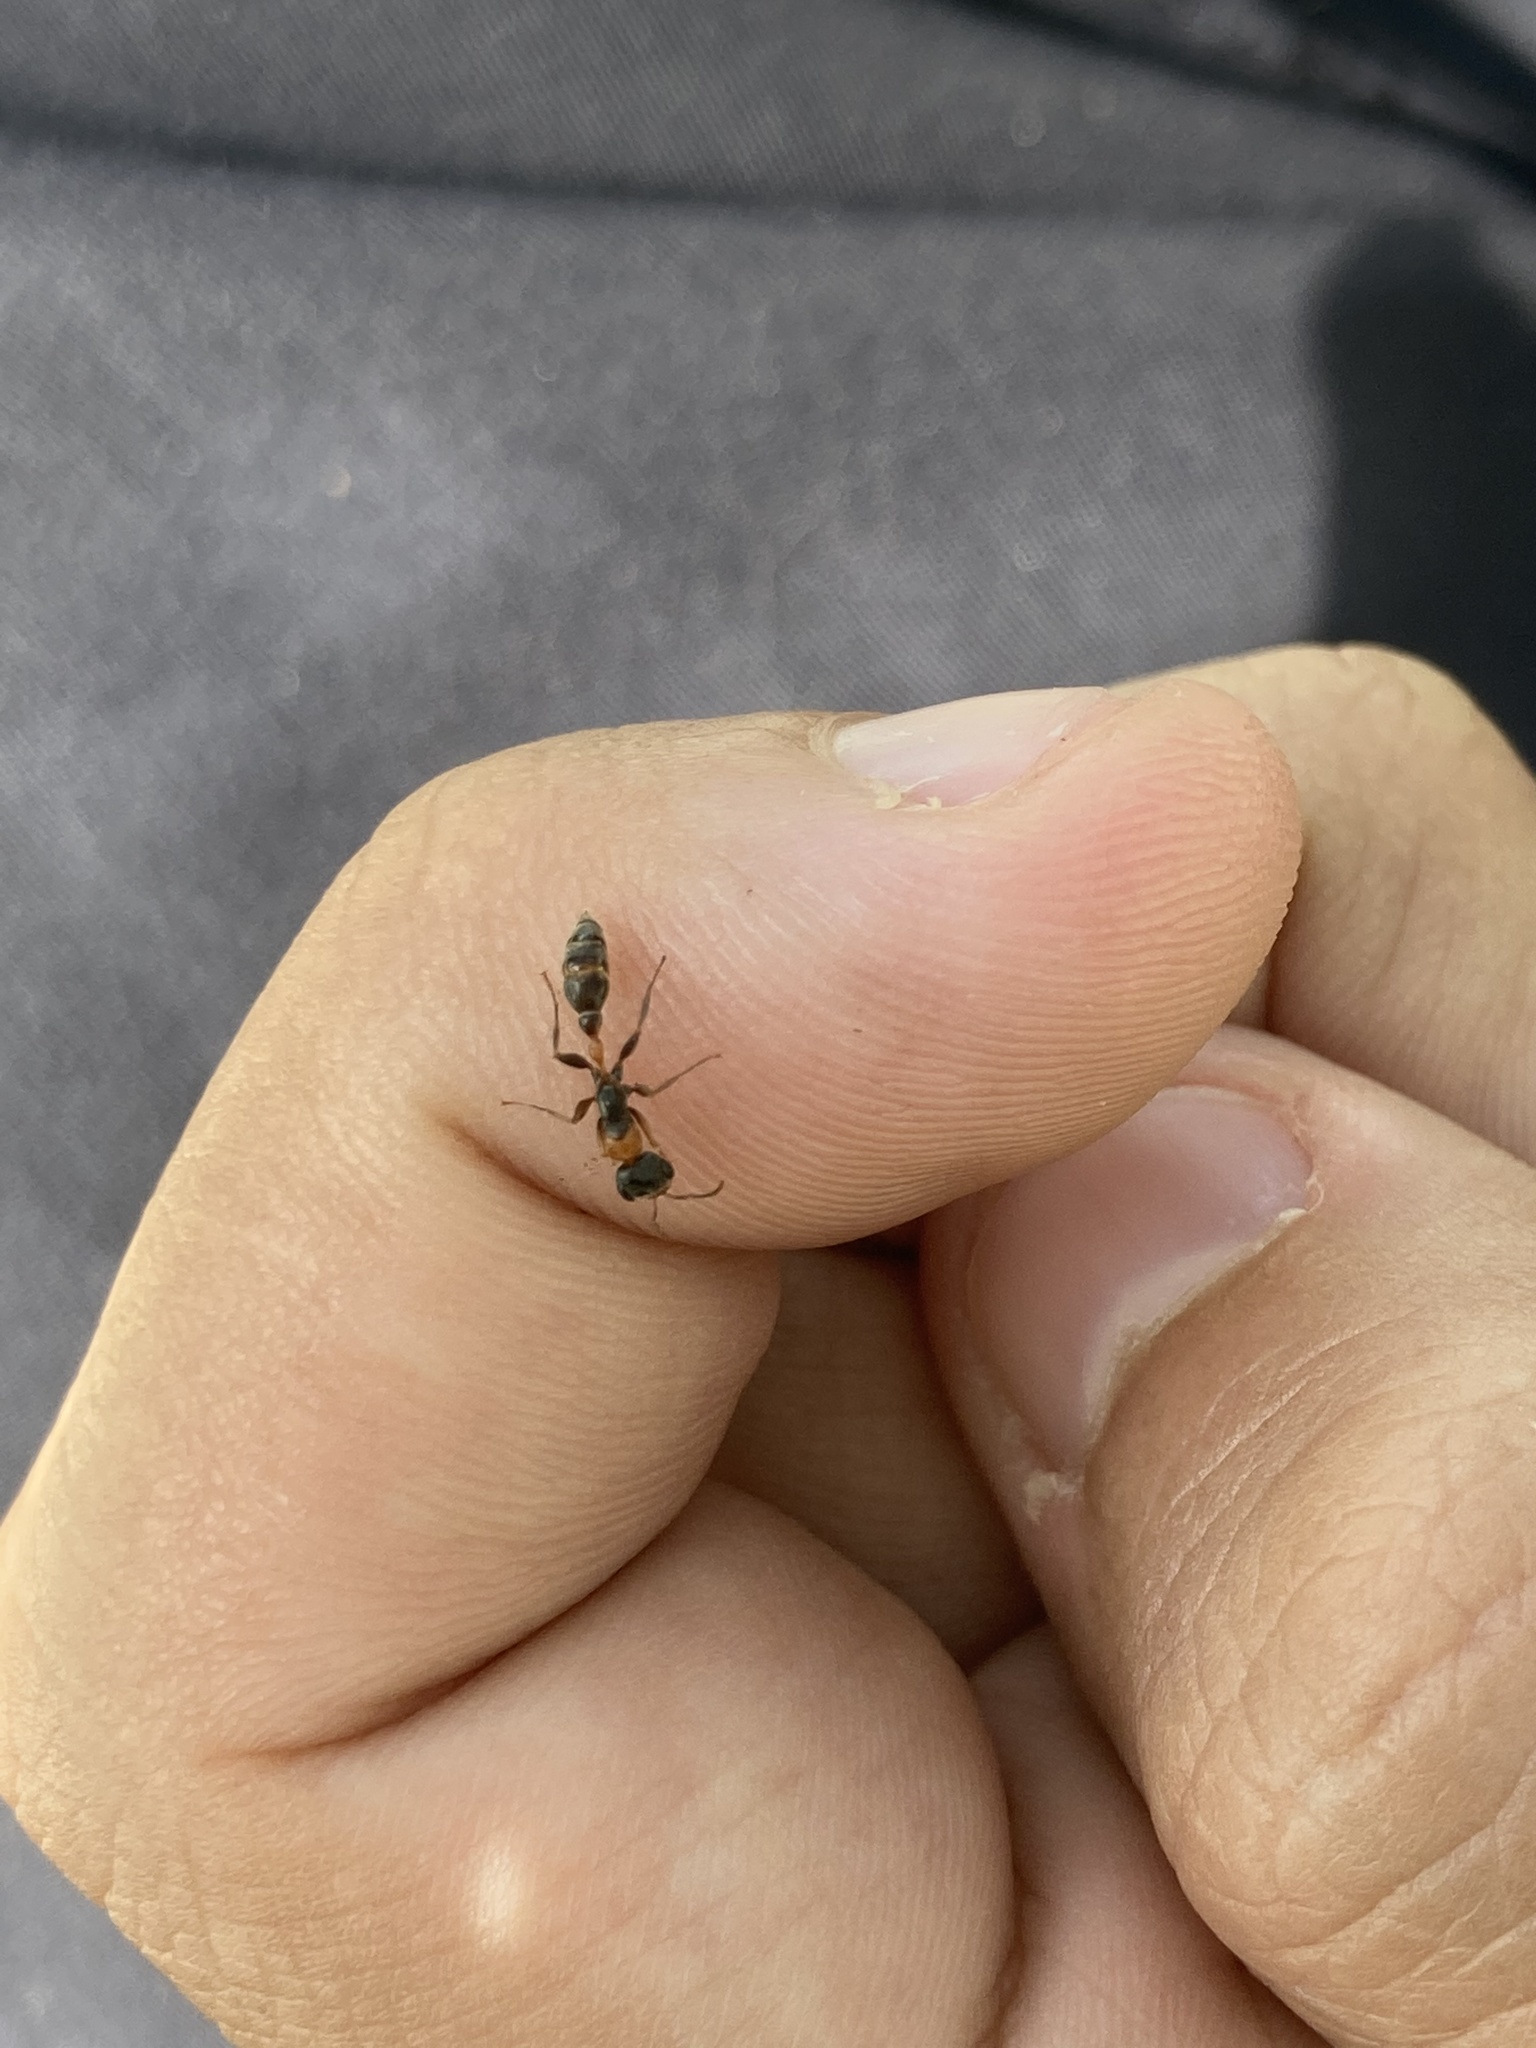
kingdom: Animalia
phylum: Arthropoda
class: Insecta
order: Hymenoptera
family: Formicidae
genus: Pseudomyrmex
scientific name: Pseudomyrmex gracilis
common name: Graceful twig ant
